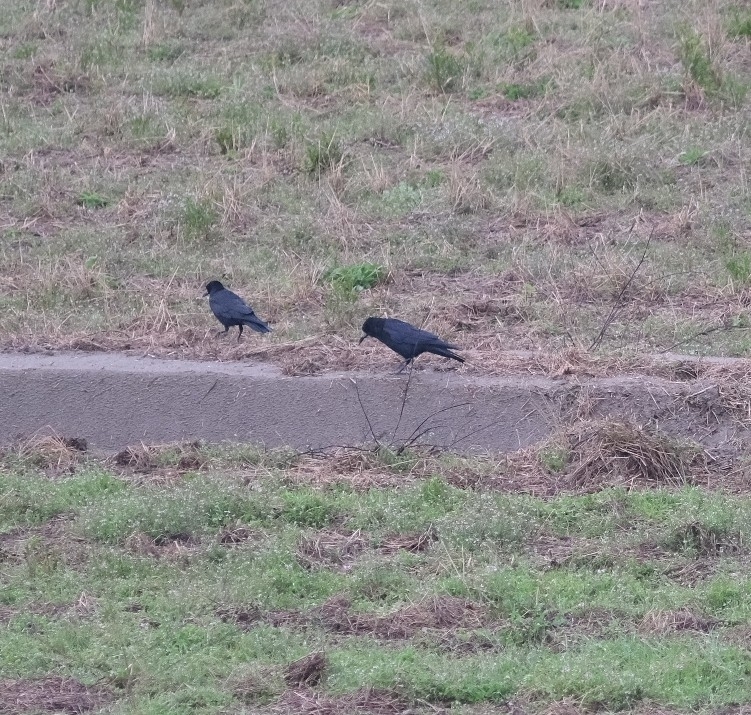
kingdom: Animalia
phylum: Chordata
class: Aves
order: Passeriformes
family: Corvidae
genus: Corvus
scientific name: Corvus frugilegus
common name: Rook
